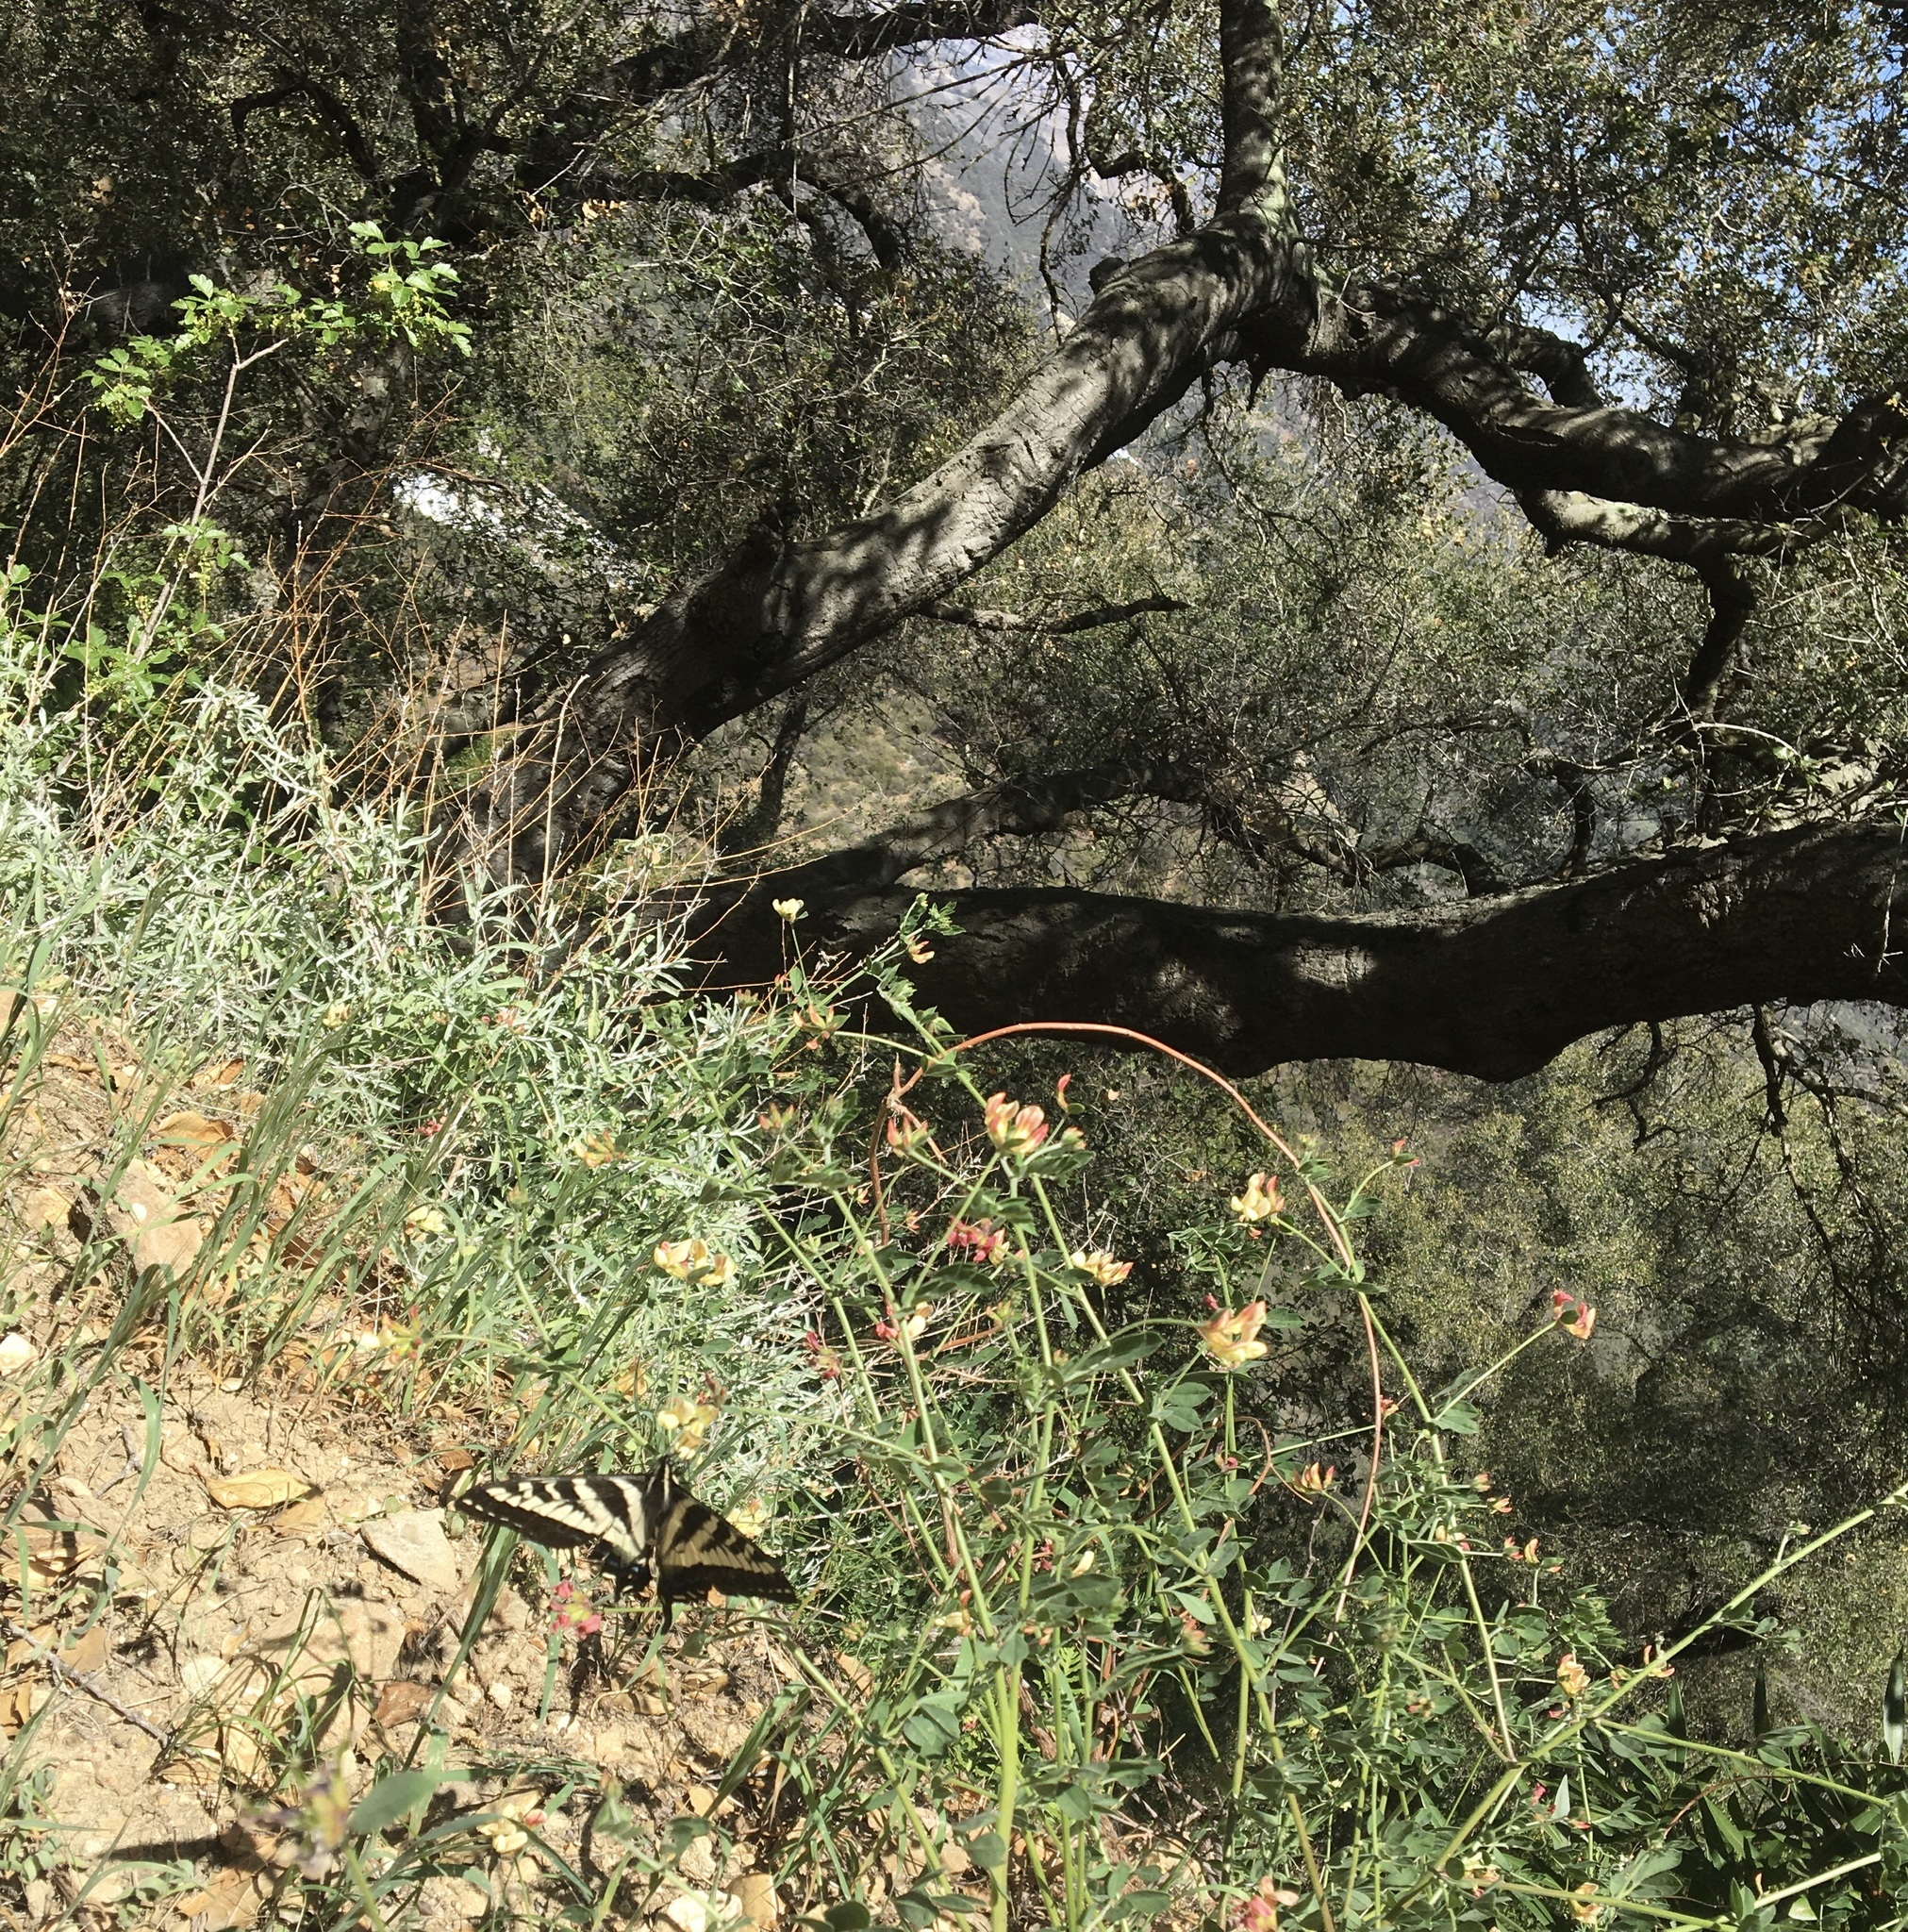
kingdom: Animalia
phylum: Arthropoda
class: Insecta
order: Lepidoptera
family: Papilionidae
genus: Papilio
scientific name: Papilio eurymedon
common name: Pale tiger swallowtail
